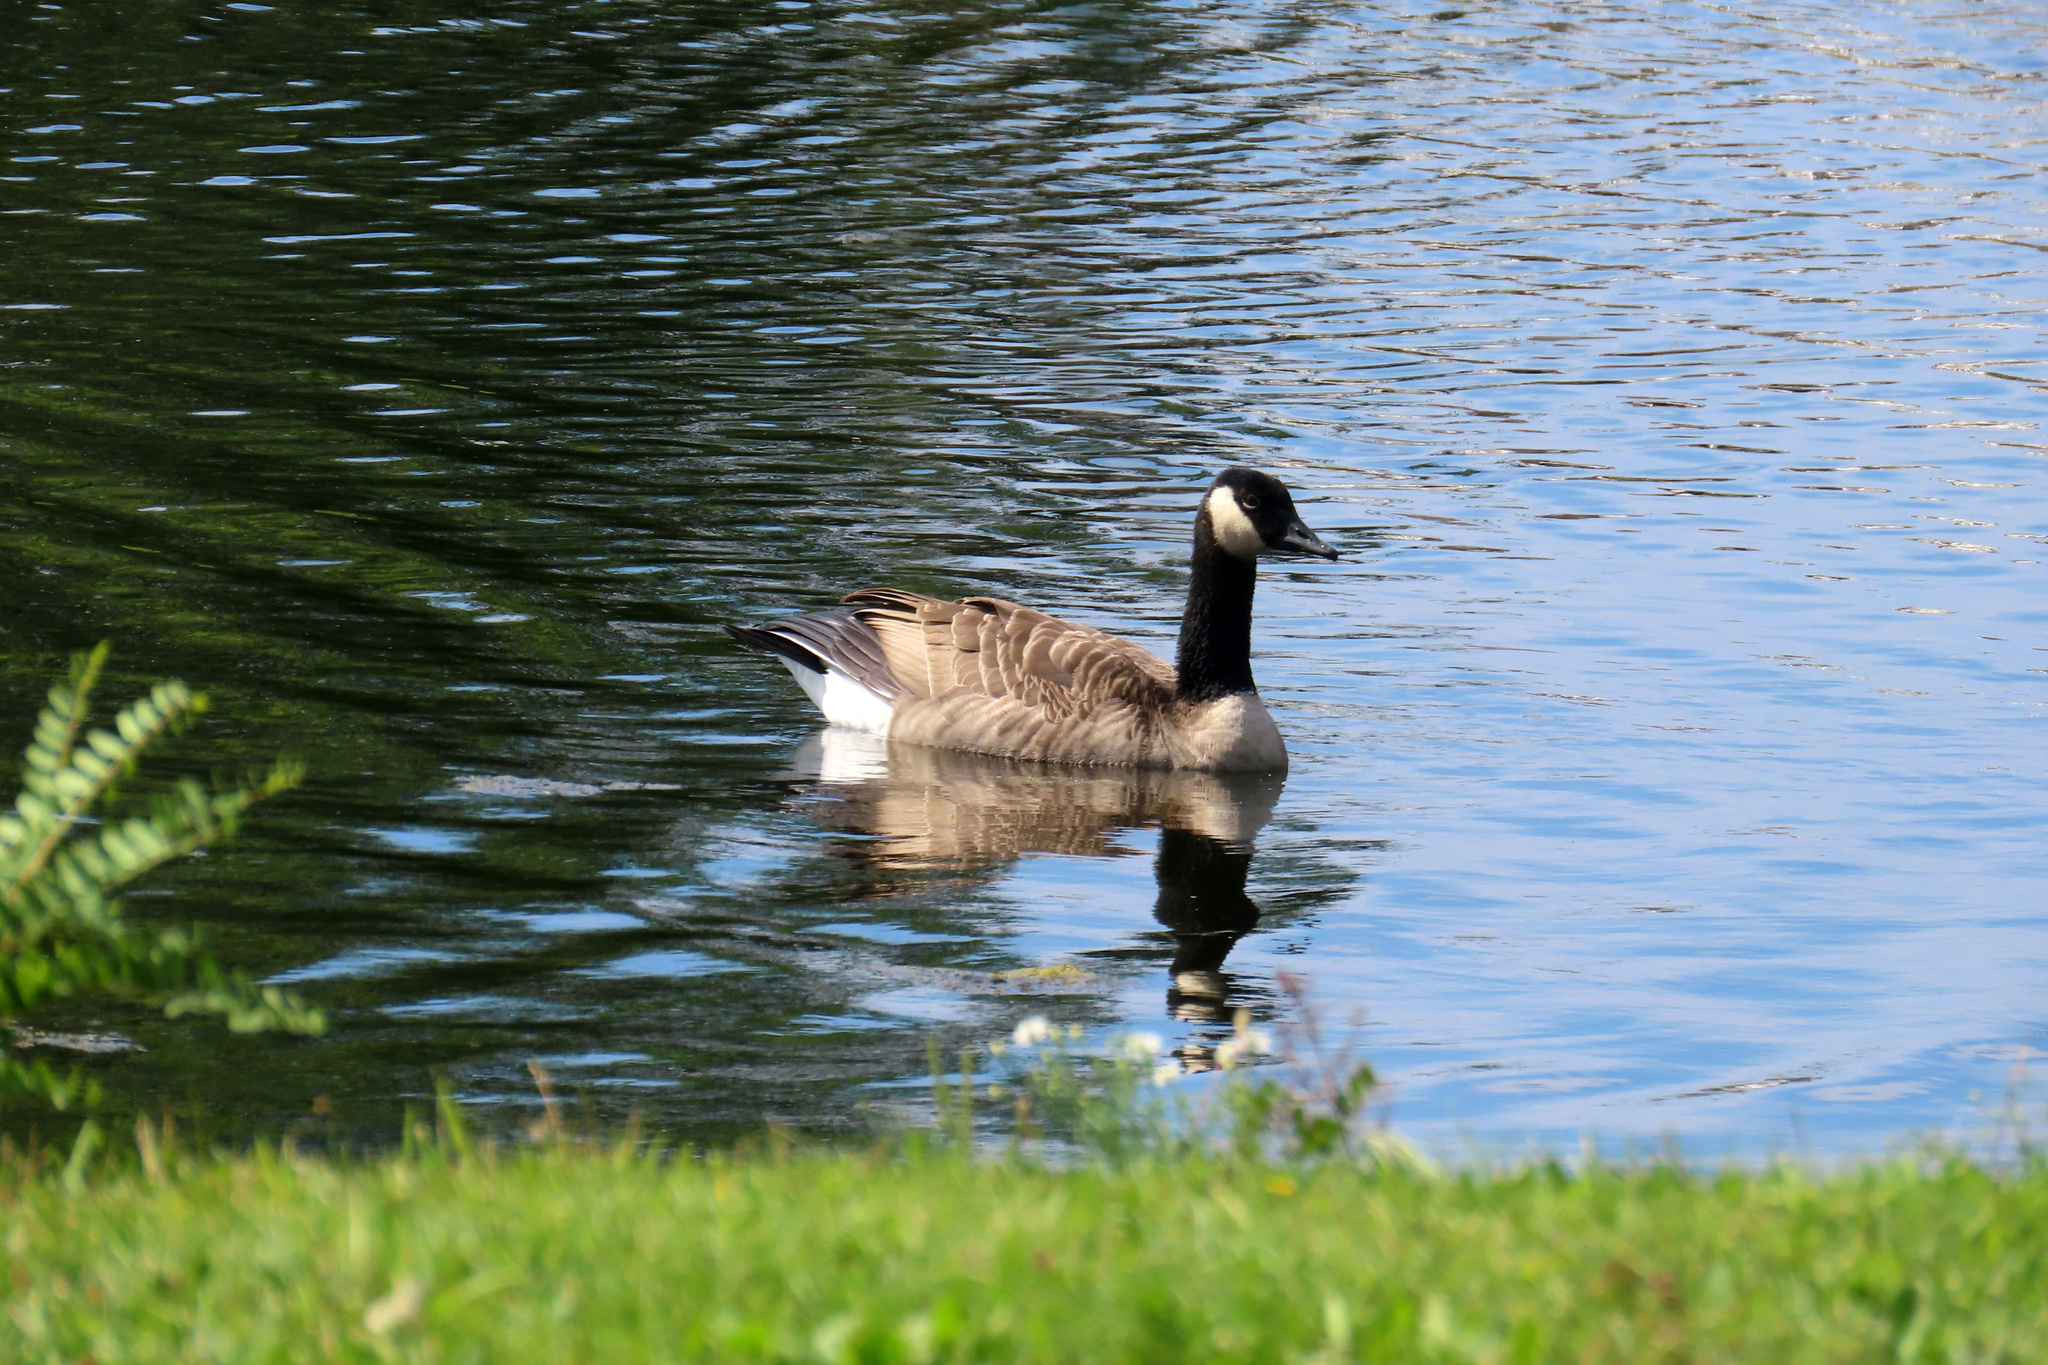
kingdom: Animalia
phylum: Chordata
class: Aves
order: Anseriformes
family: Anatidae
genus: Branta
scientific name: Branta canadensis
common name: Canada goose
